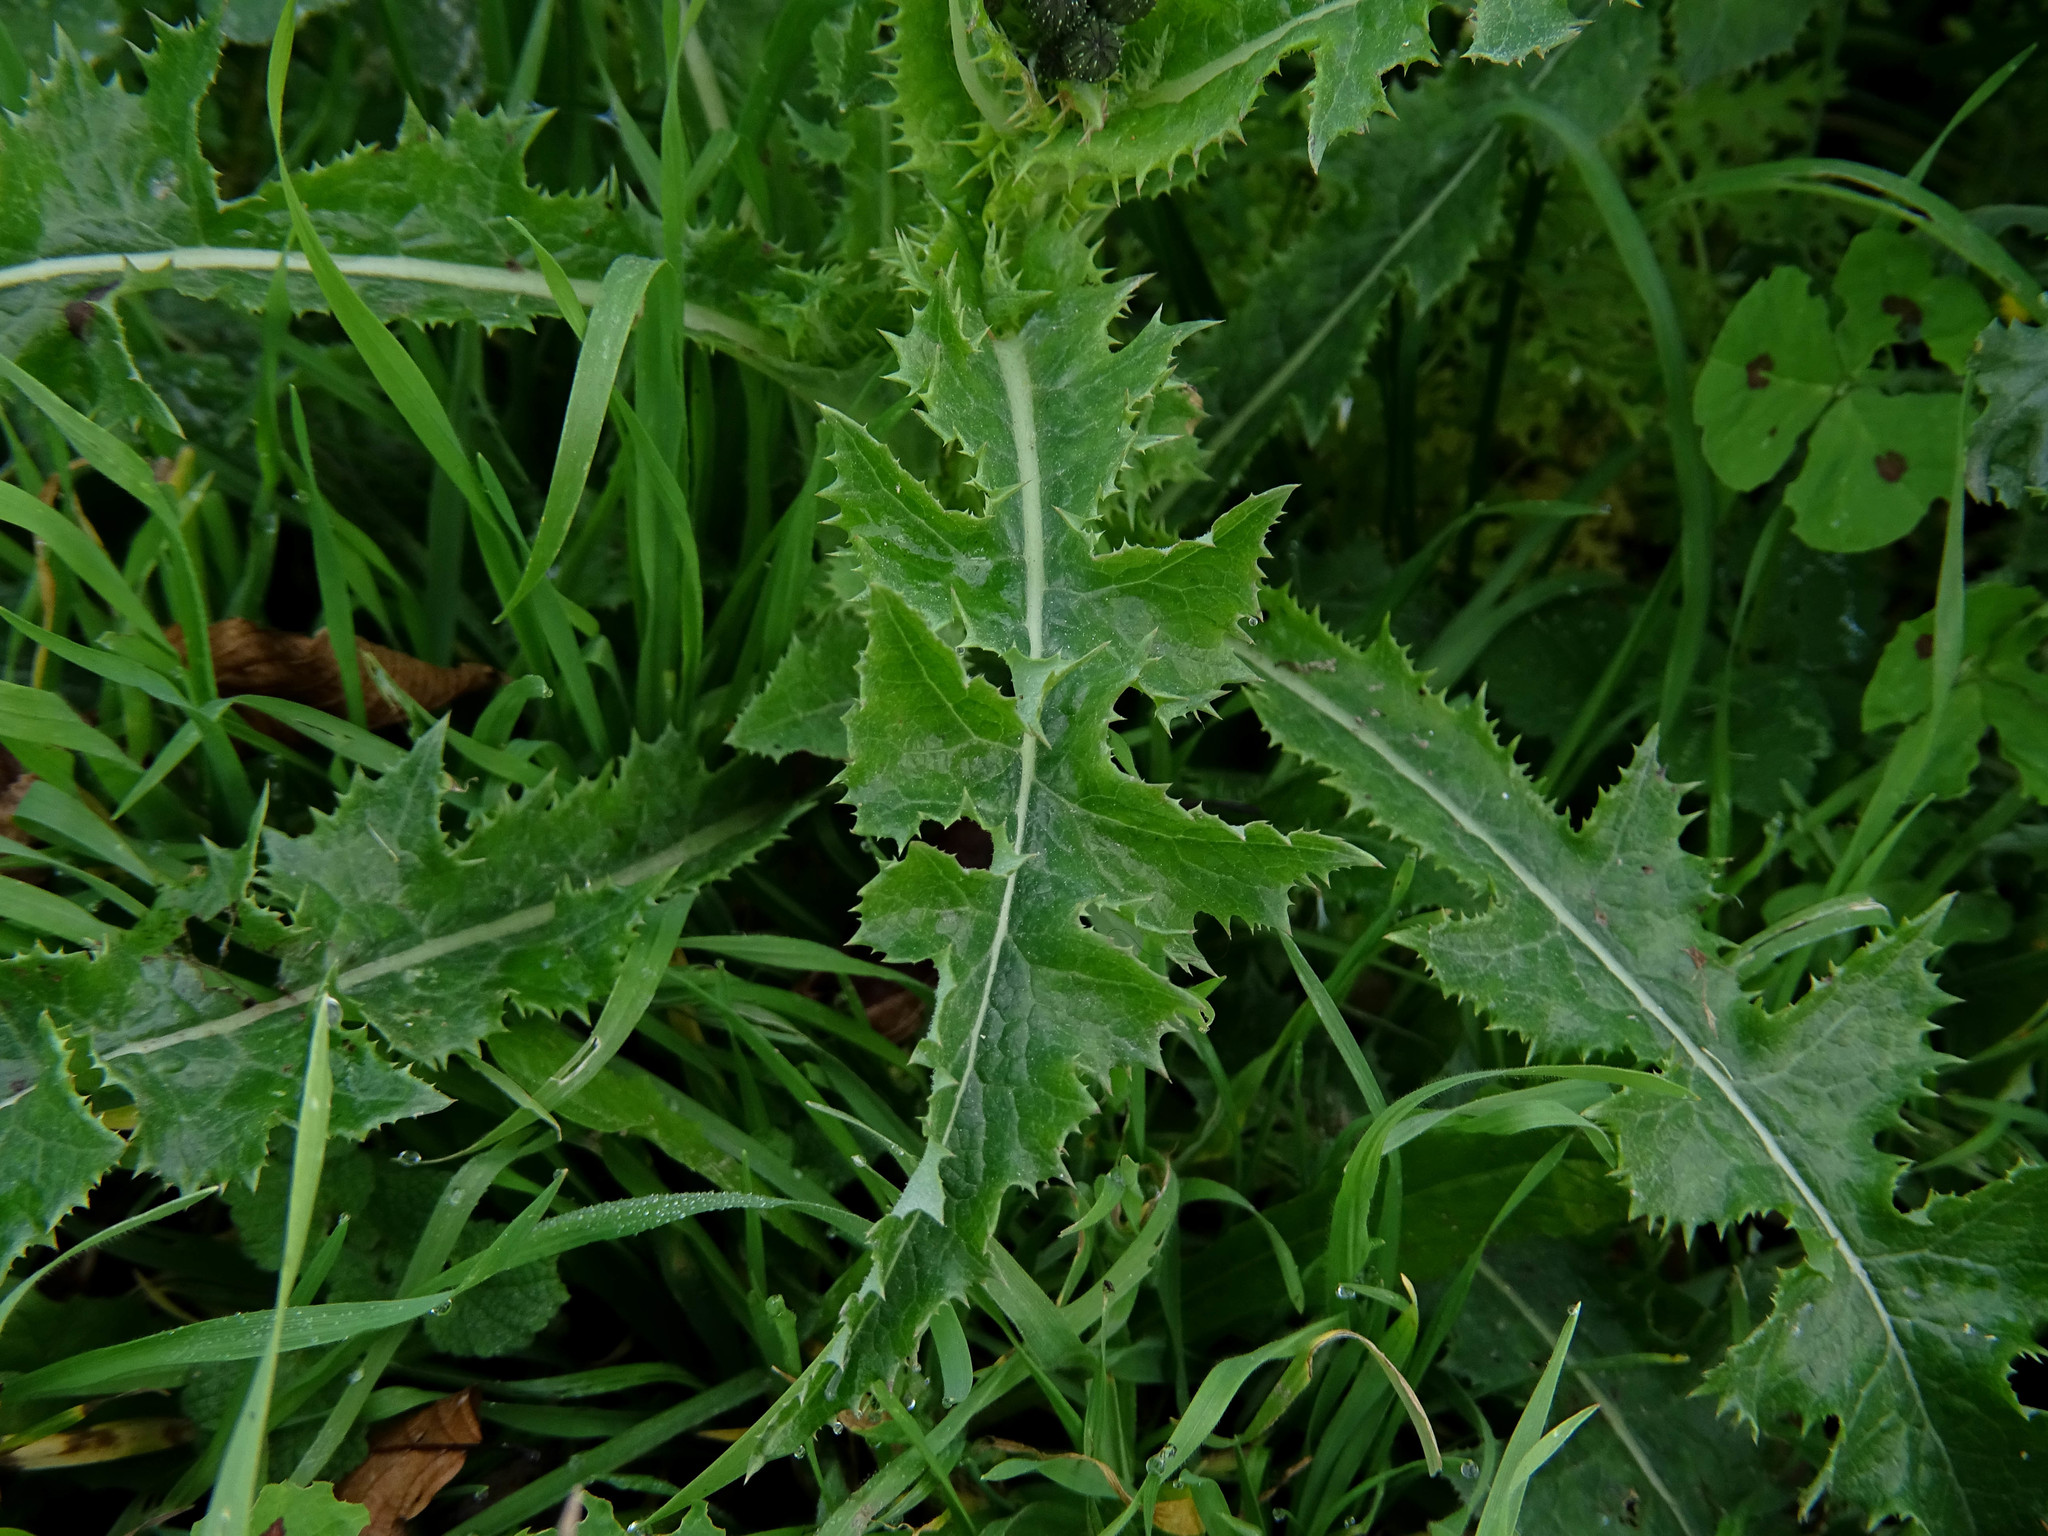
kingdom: Plantae
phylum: Tracheophyta
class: Magnoliopsida
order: Asterales
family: Asteraceae
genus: Sonchus
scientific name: Sonchus asper
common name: Prickly sow-thistle
